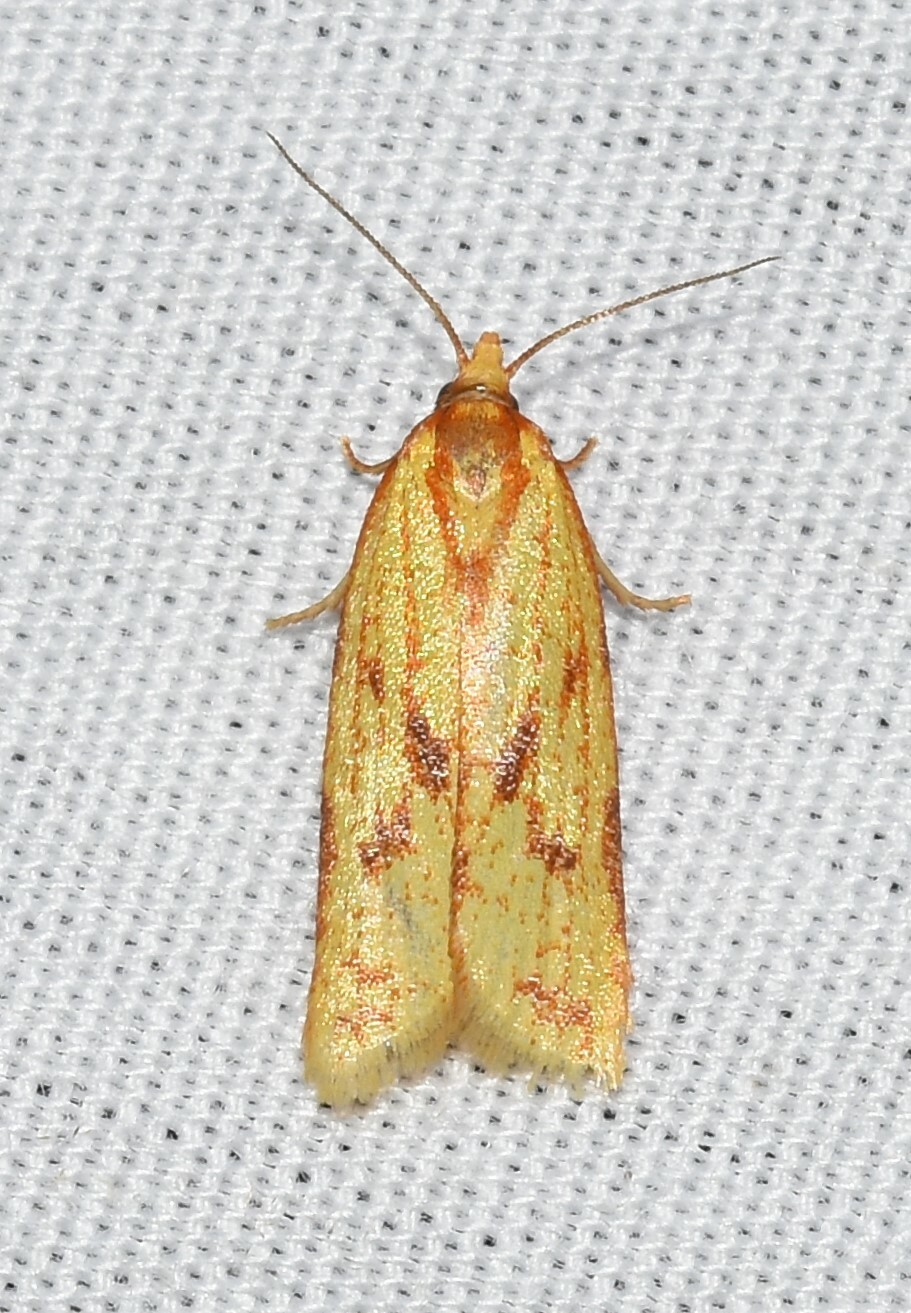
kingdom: Animalia
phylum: Arthropoda
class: Insecta
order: Lepidoptera
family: Tortricidae
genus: Sparganothis
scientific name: Sparganothis sulfureana
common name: Sparganothis fruitworm moth
